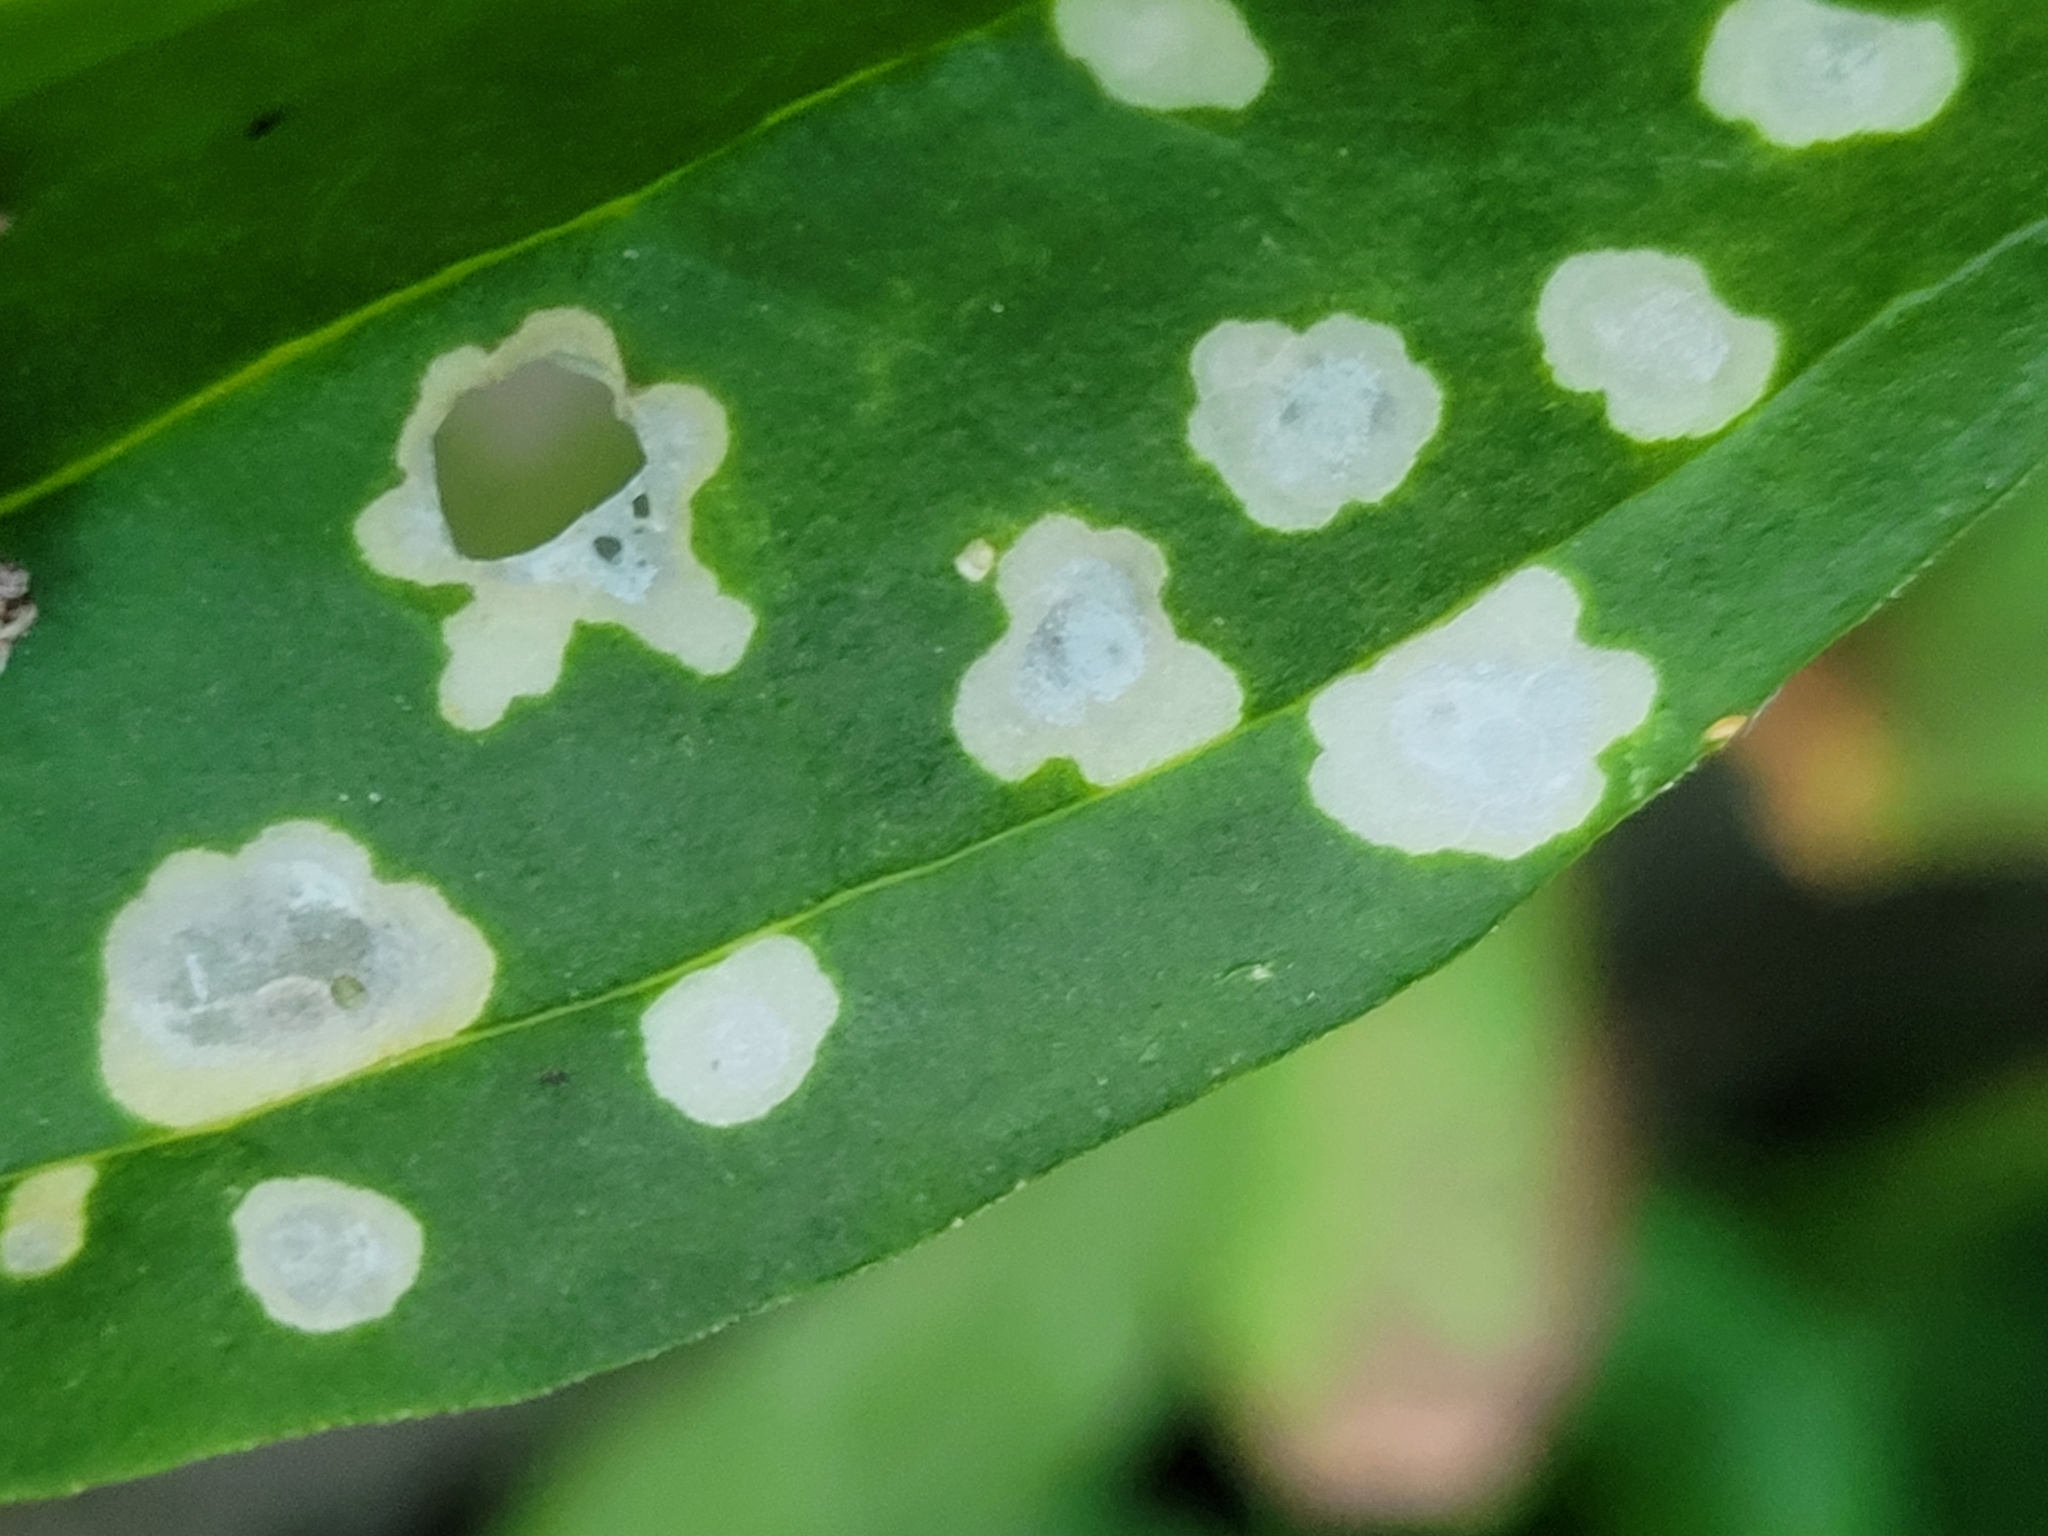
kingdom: Animalia
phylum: Arthropoda
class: Insecta
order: Lepidoptera
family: Coleophoridae
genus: Coleophora
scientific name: Coleophora saponariella
